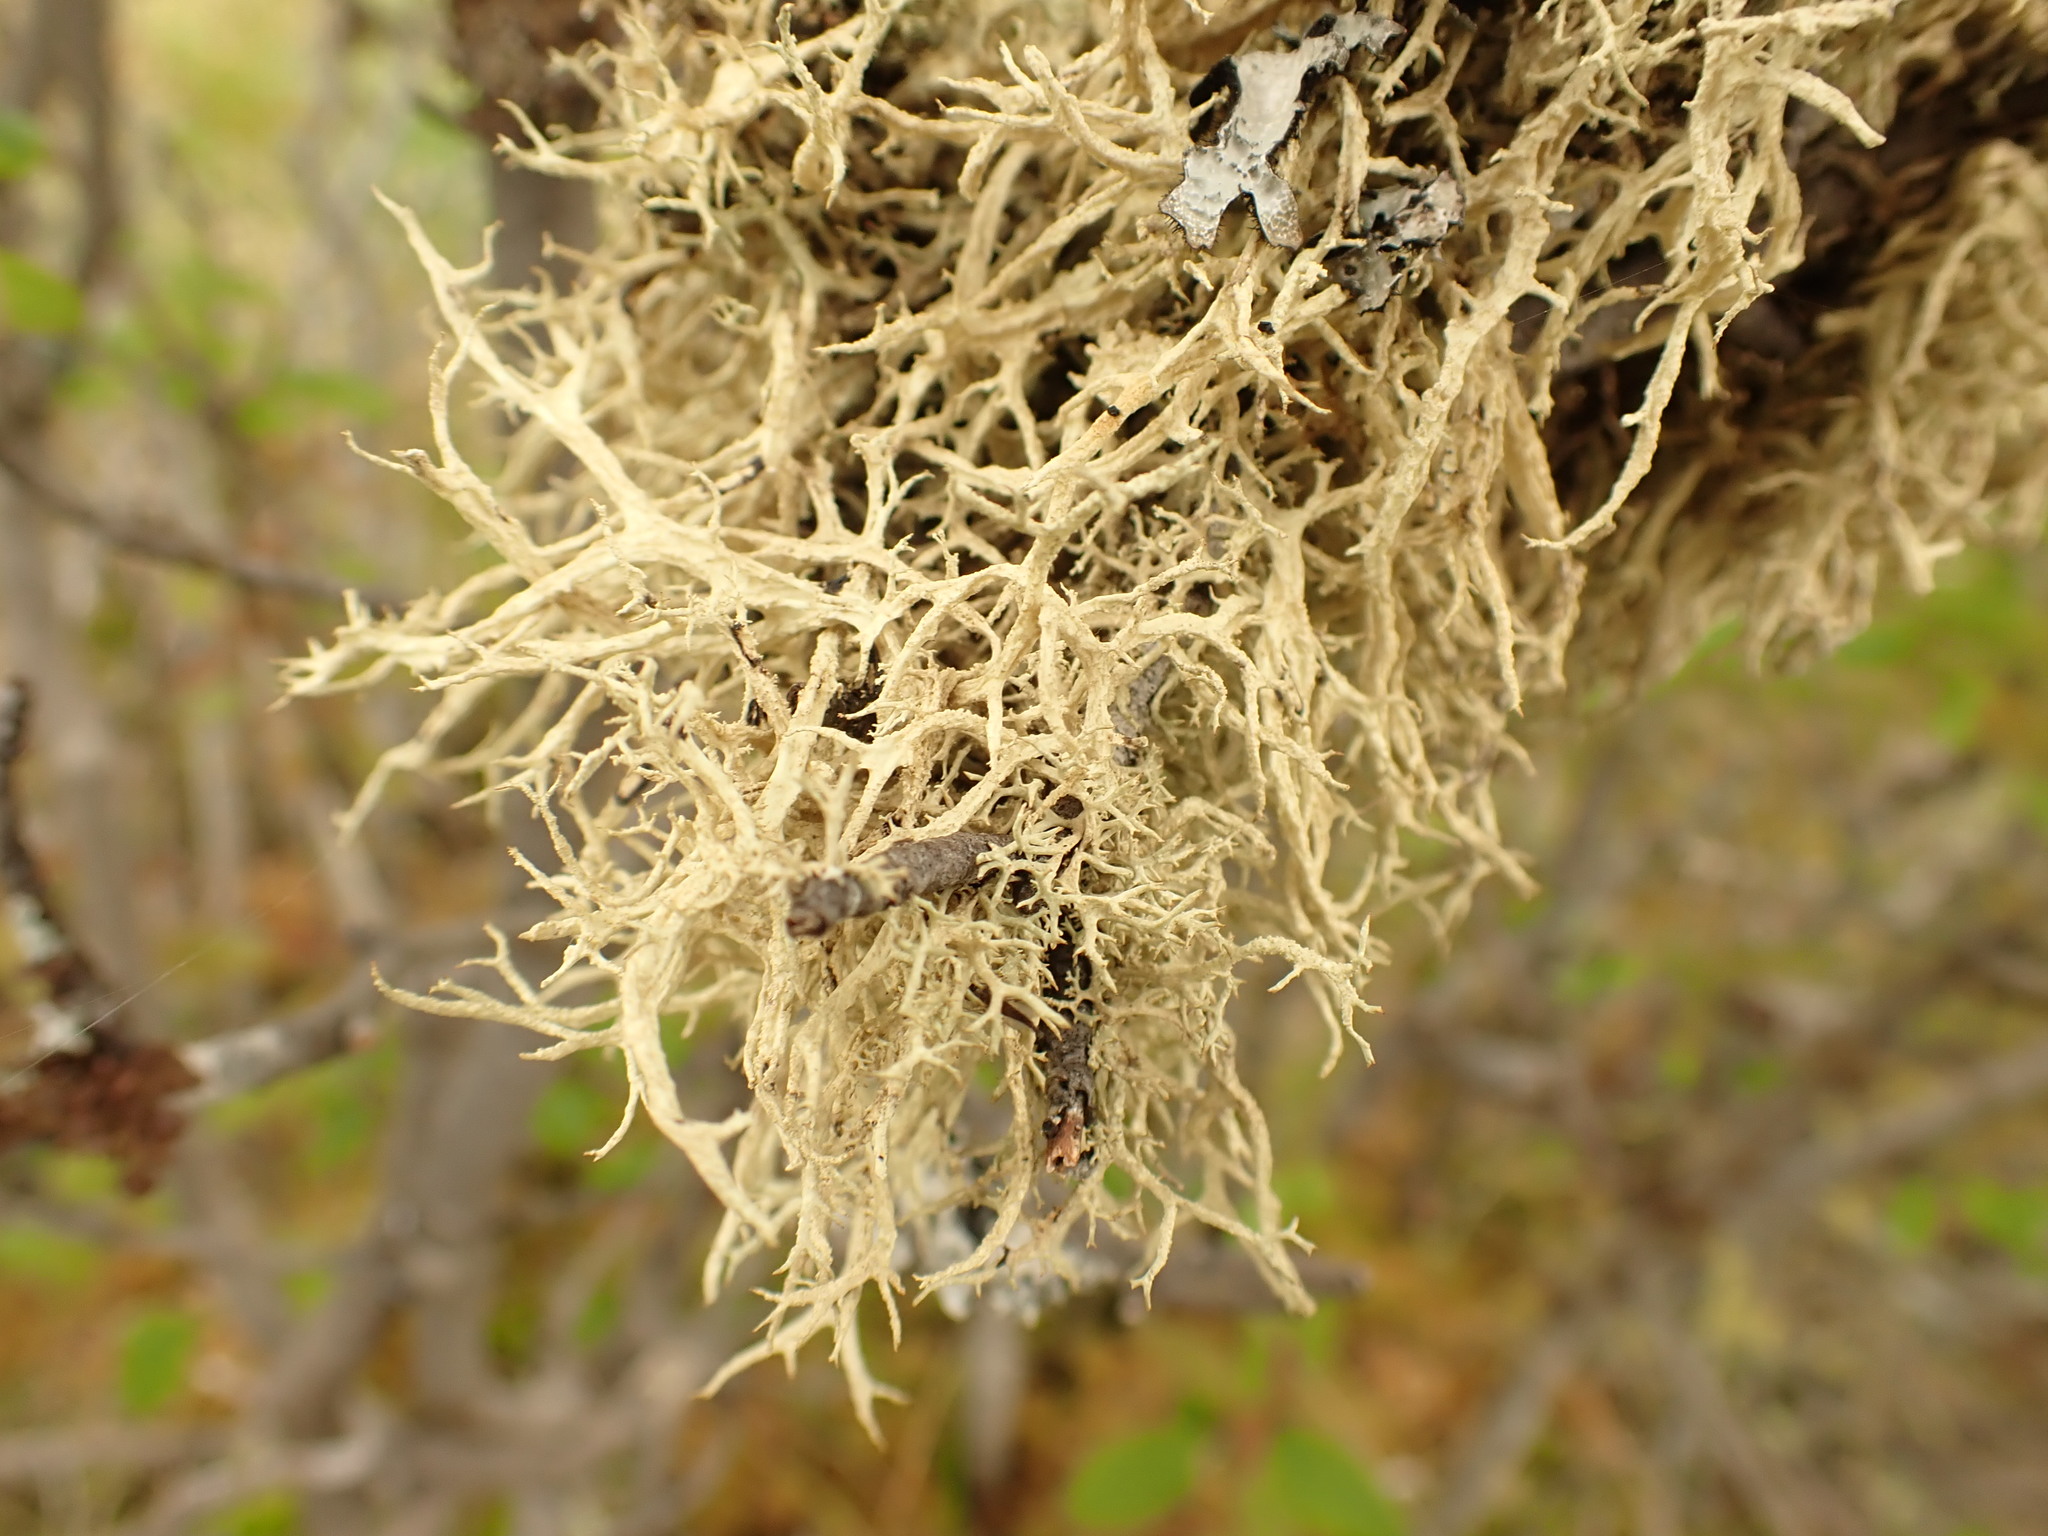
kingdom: Fungi
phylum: Ascomycota
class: Lecanoromycetes
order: Lecanorales
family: Parmeliaceae
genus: Evernia
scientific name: Evernia mesomorpha
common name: Boreal oak moss lichen
